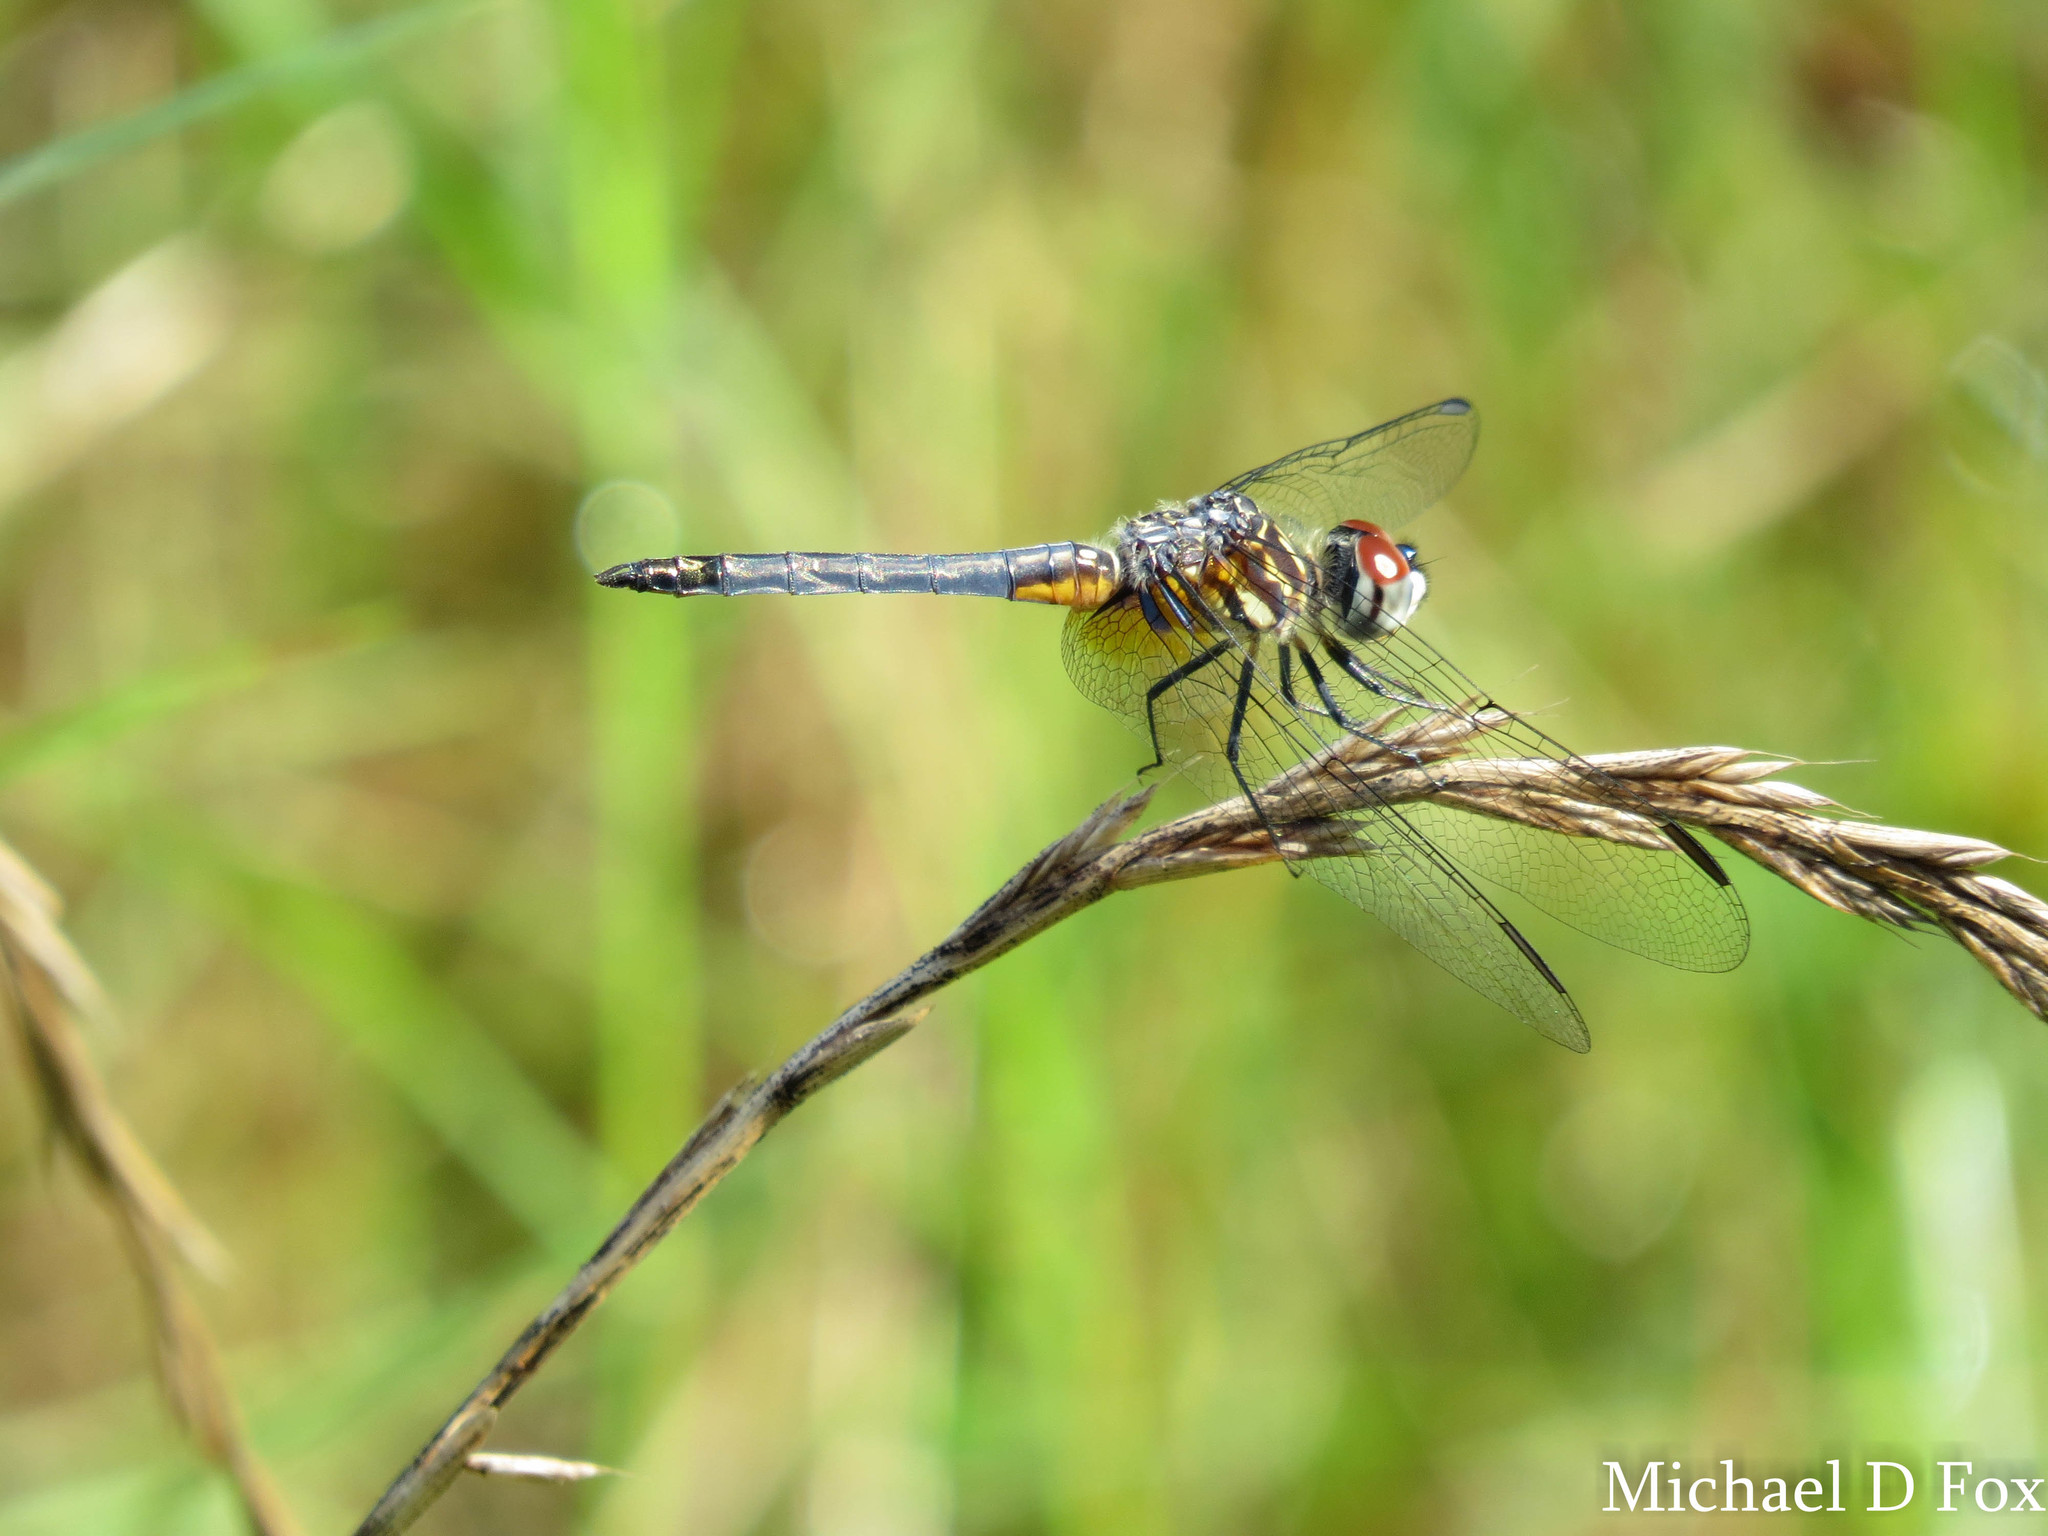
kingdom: Animalia
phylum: Arthropoda
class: Insecta
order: Odonata
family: Libellulidae
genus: Pachydiplax
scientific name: Pachydiplax longipennis
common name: Blue dasher
